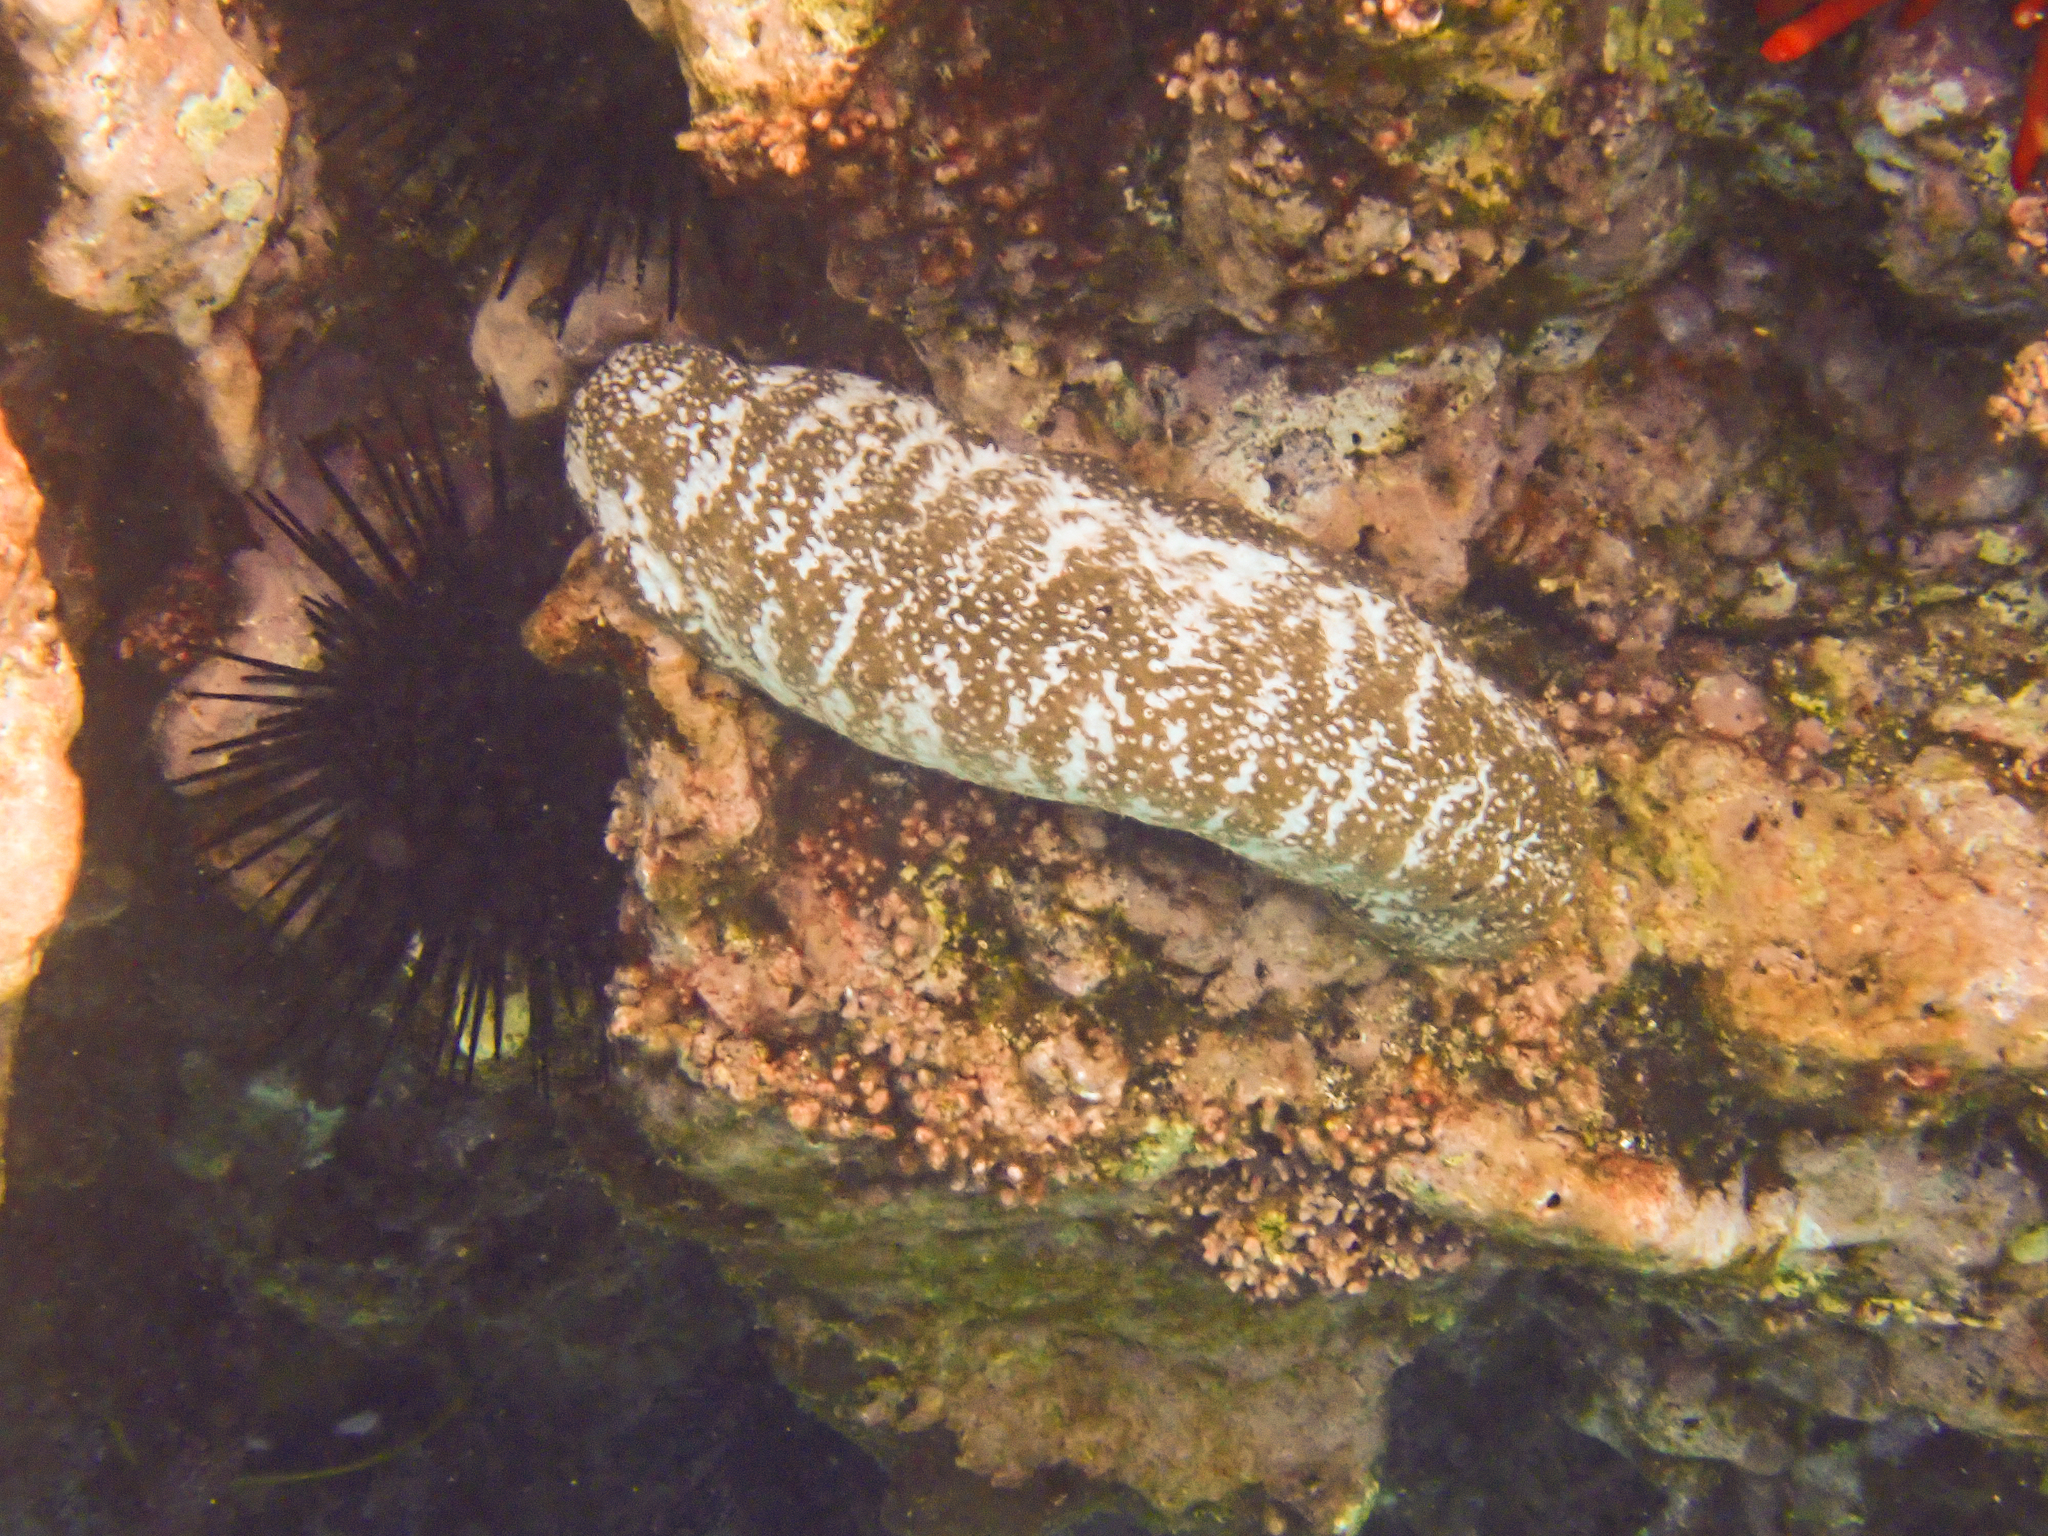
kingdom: Animalia
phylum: Echinodermata
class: Holothuroidea
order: Holothuriida
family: Holothuriidae
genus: Actinopyga
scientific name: Actinopyga varians
